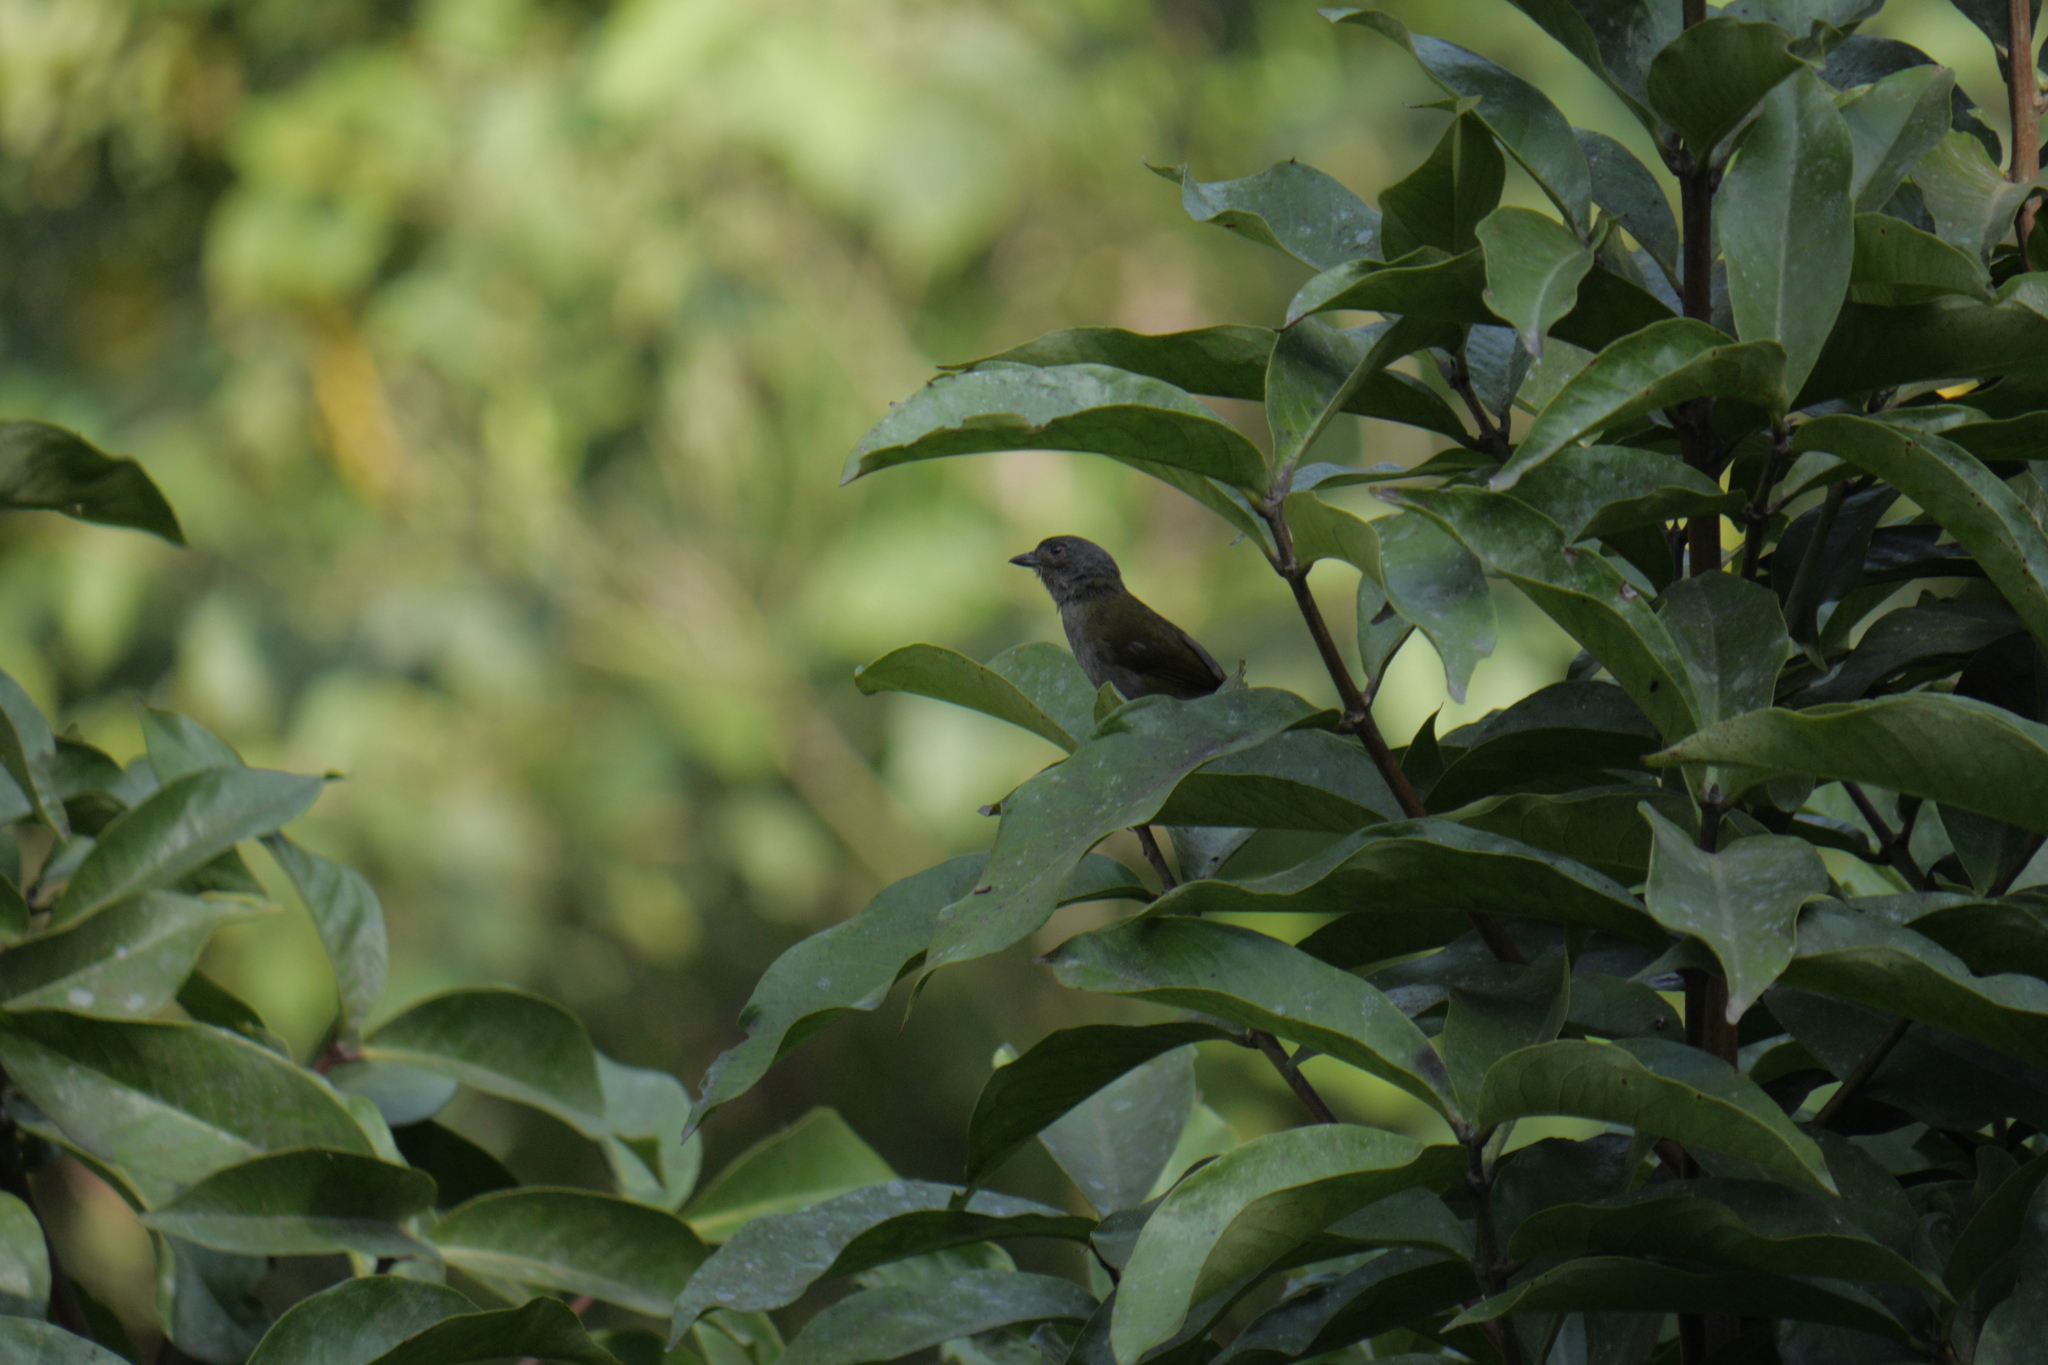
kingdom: Animalia
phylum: Chordata
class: Aves
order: Passeriformes
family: Passerellidae
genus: Chlorospingus
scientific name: Chlorospingus semifuscus
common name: Dusky bush-tanager
